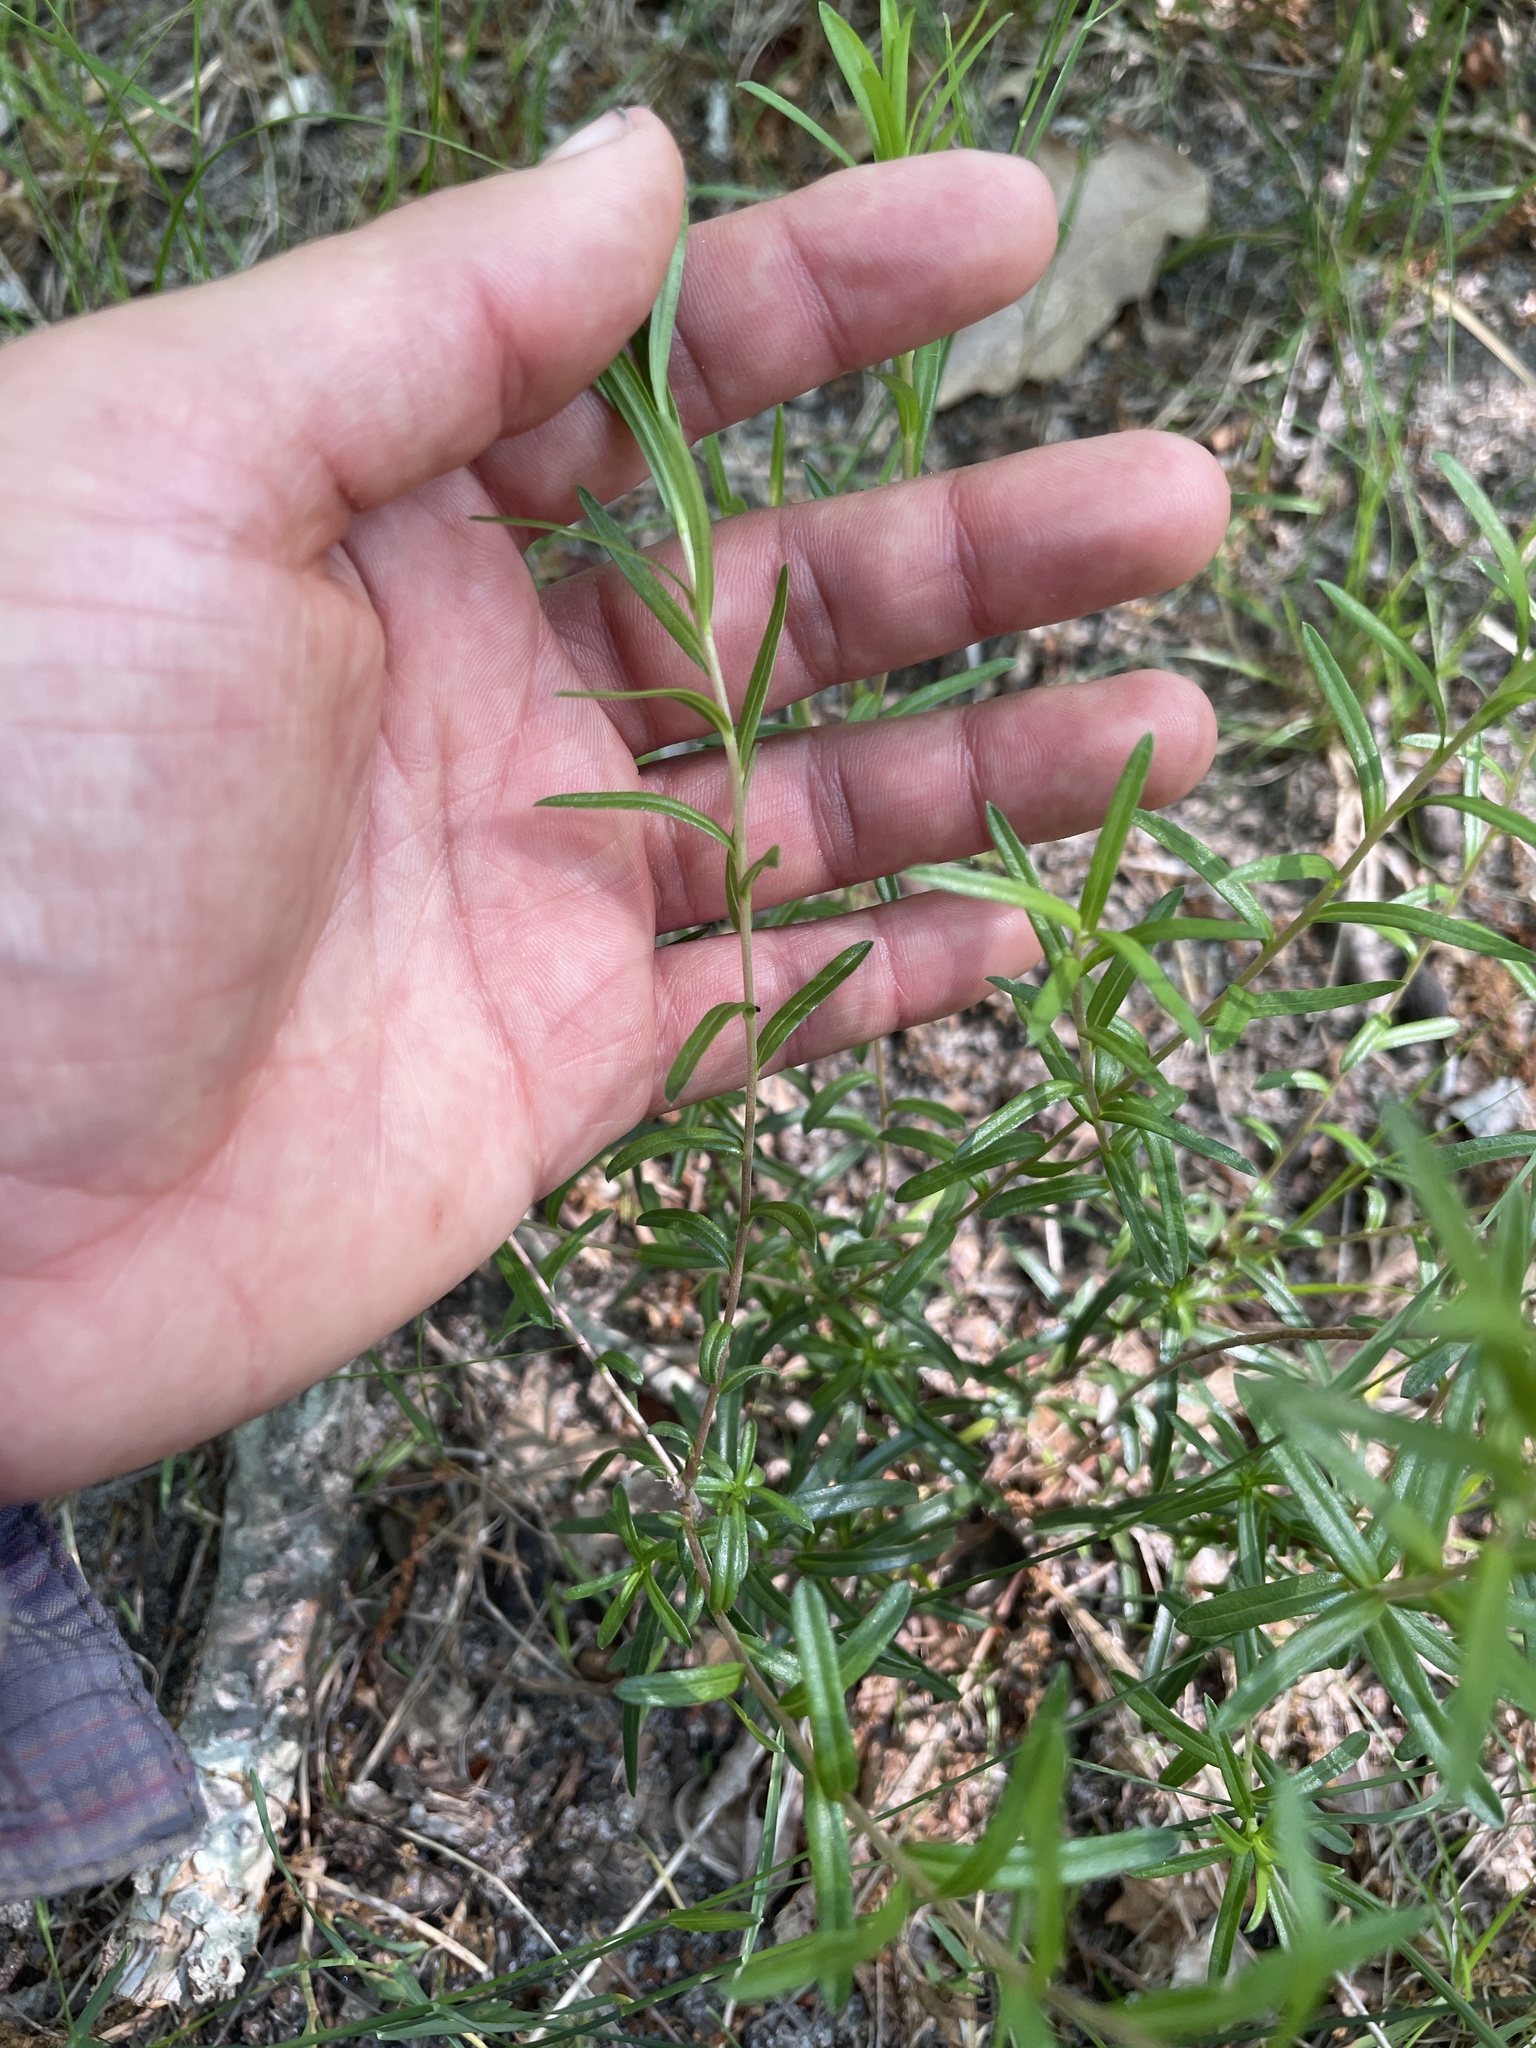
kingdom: Plantae
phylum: Tracheophyta
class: Magnoliopsida
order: Asterales
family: Asteraceae
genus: Ionactis
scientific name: Ionactis linariifolia
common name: Flax-leaf aster
